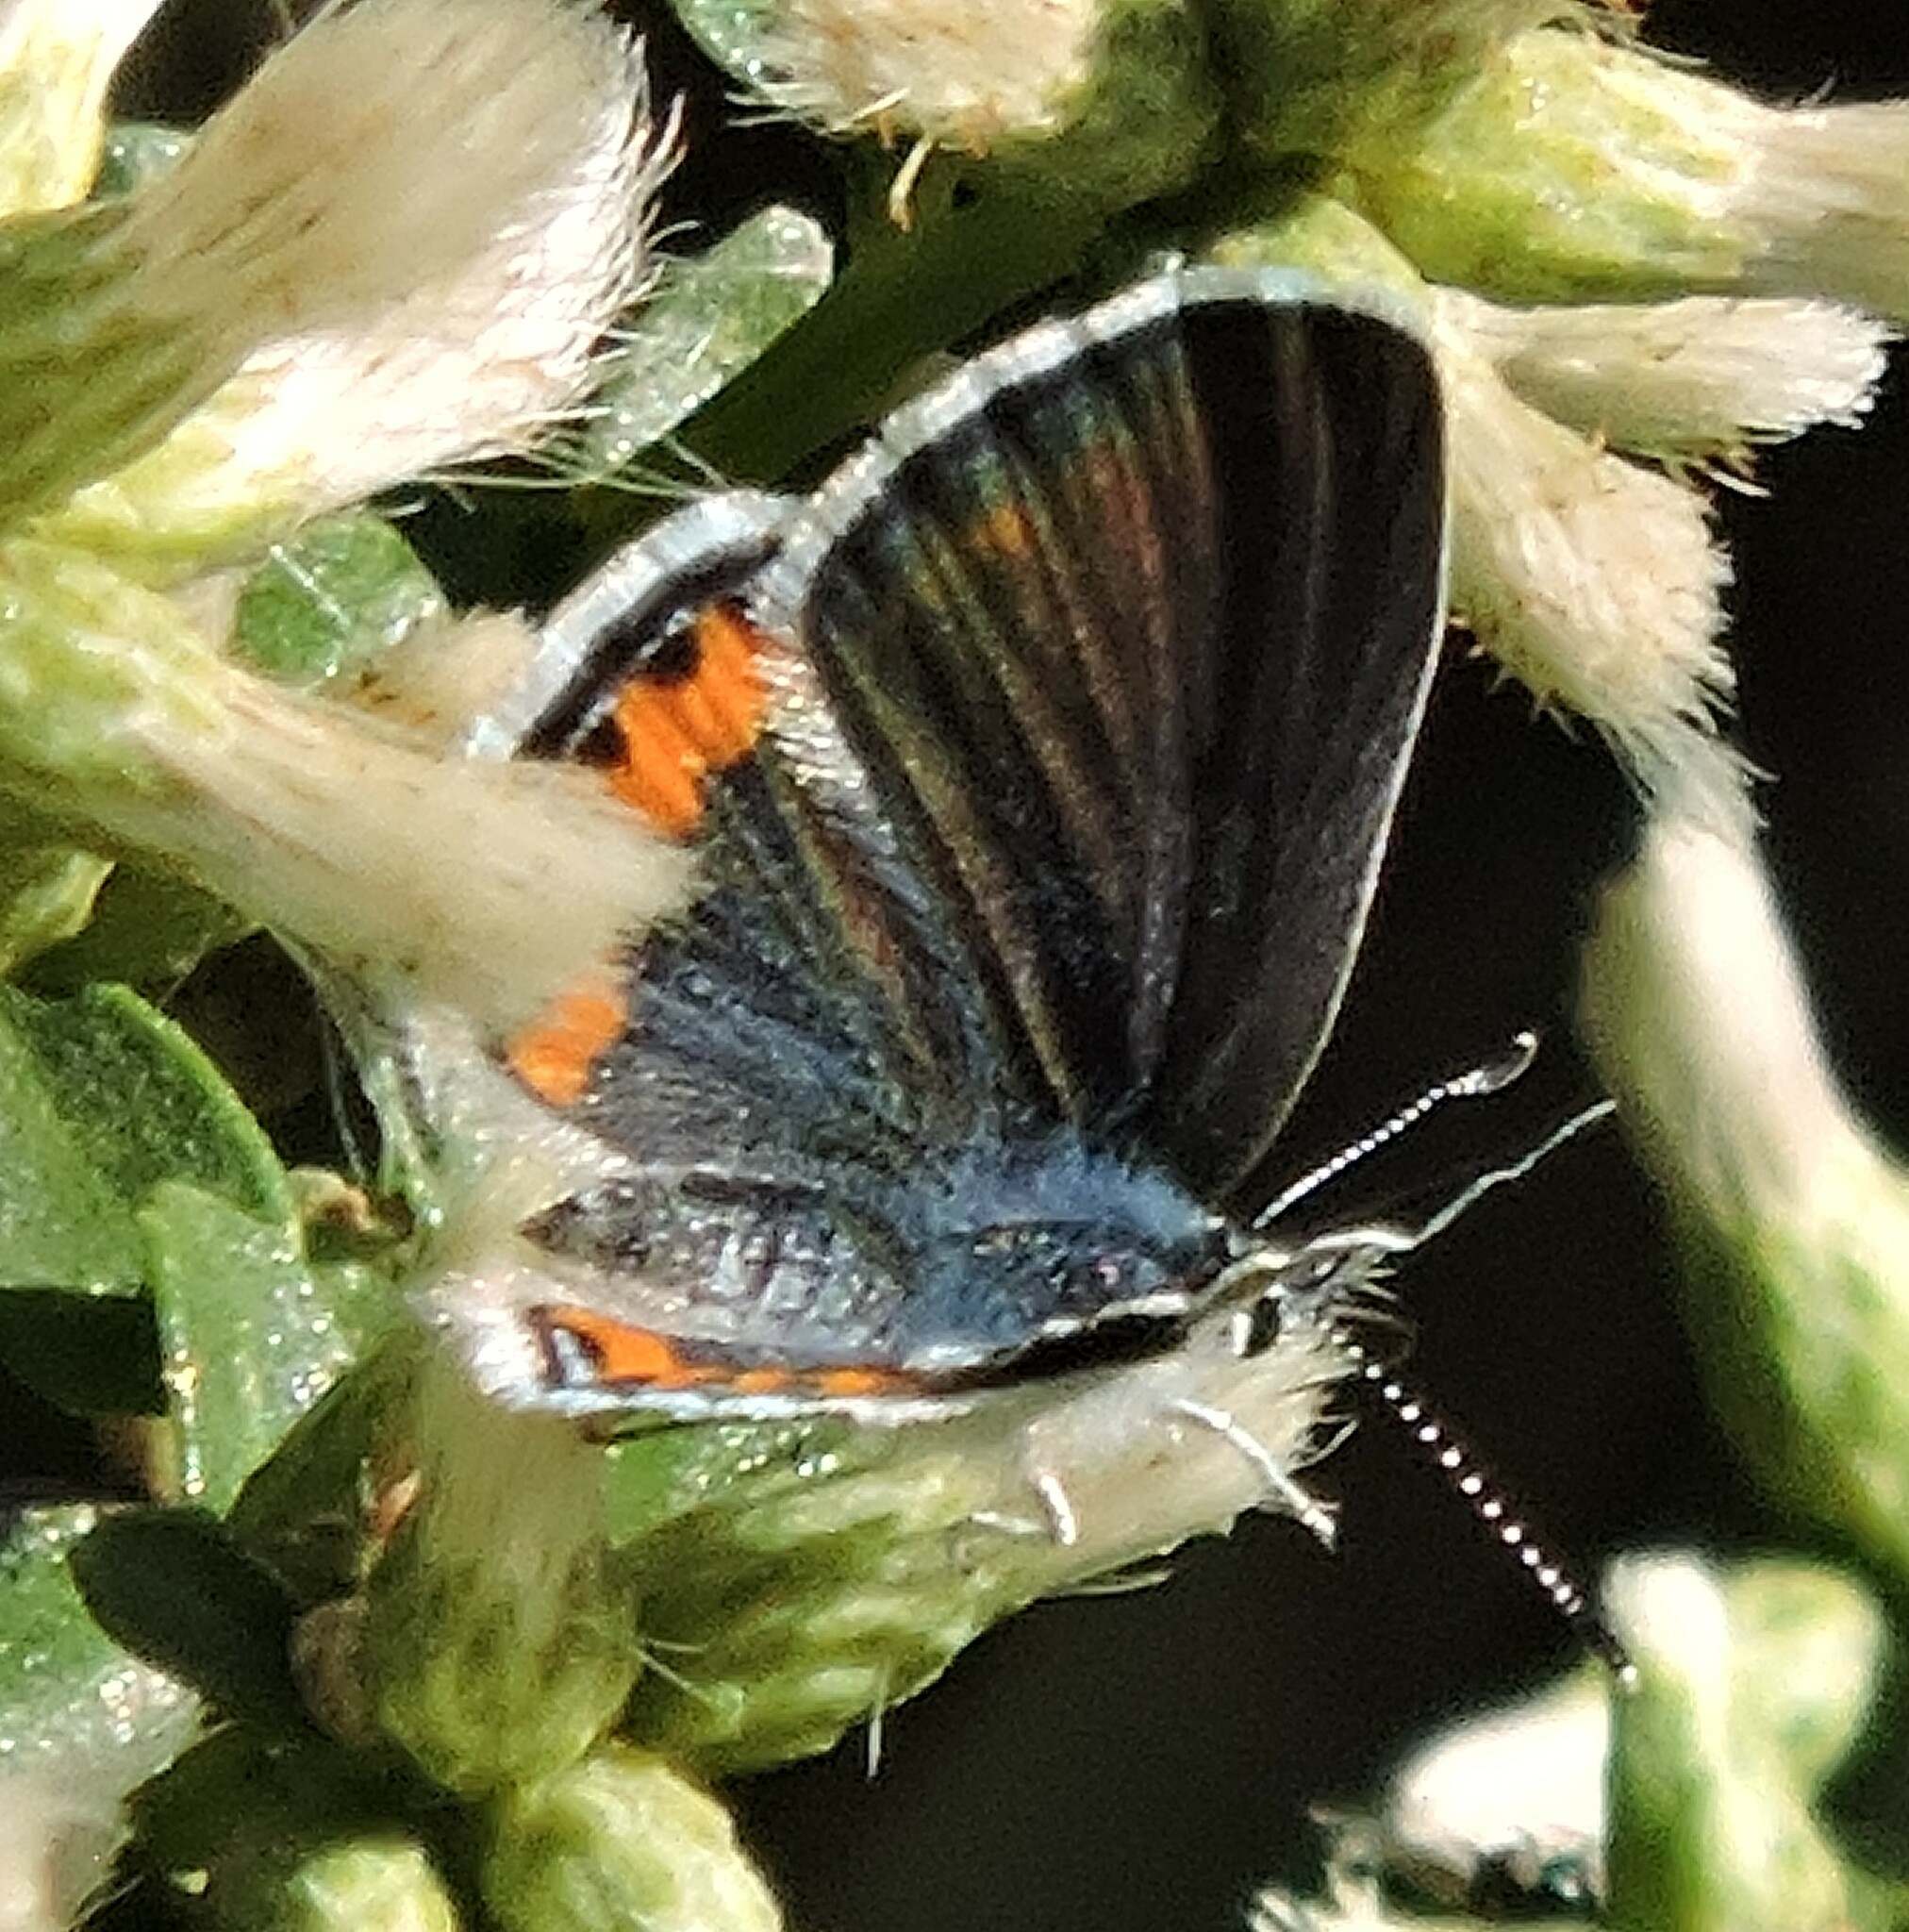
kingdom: Animalia
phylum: Arthropoda
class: Insecta
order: Lepidoptera
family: Lycaenidae
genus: Icaricia
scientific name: Icaricia acmon
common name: Acmon blue
